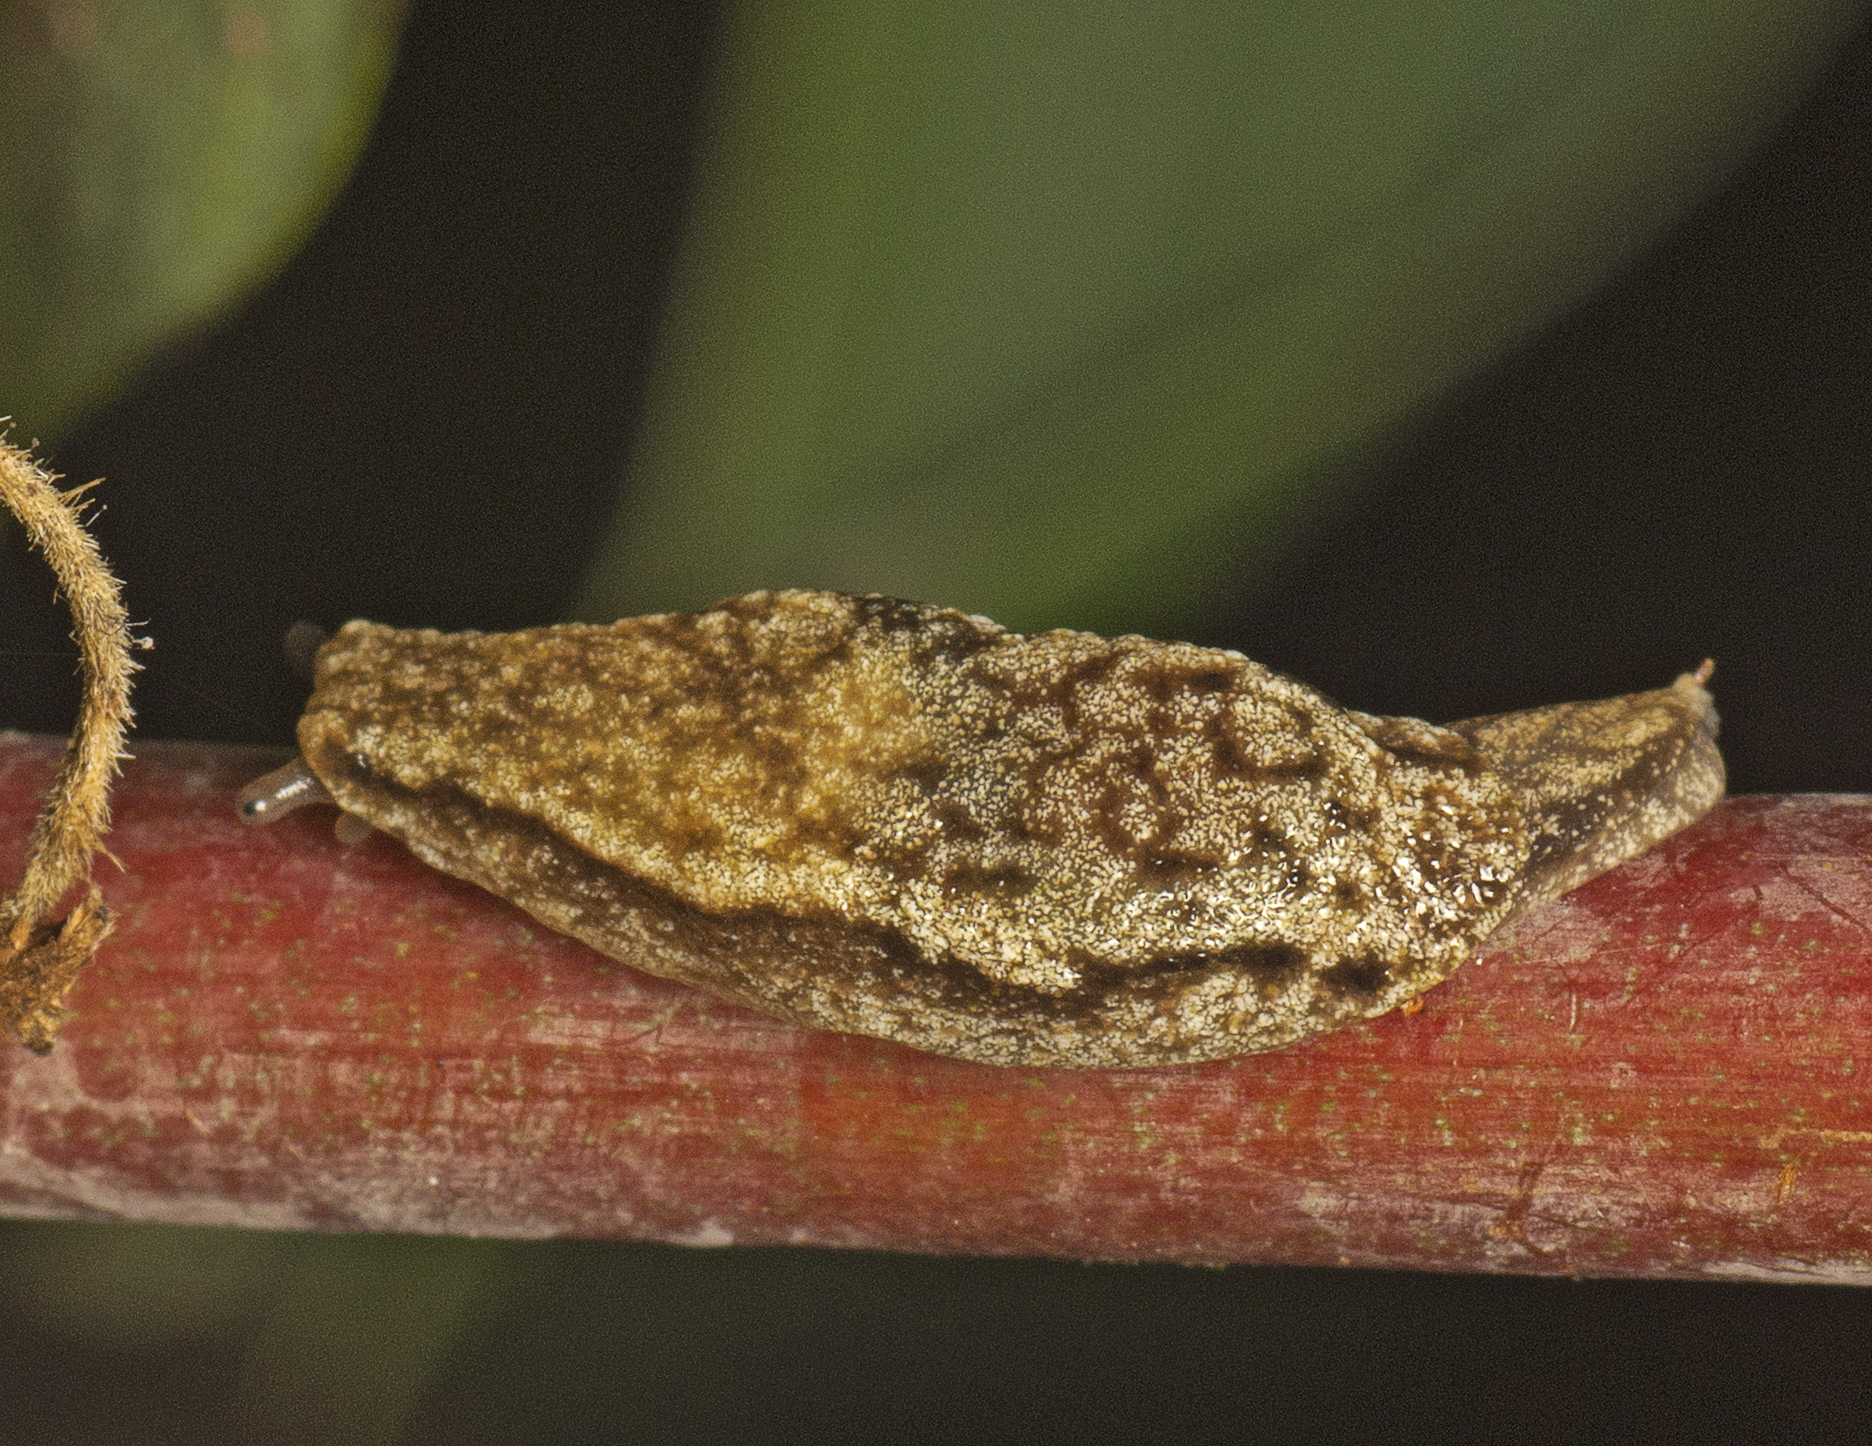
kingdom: Animalia
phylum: Mollusca
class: Gastropoda
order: Stylommatophora
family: Cystopeltidae
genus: Cystopelta
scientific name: Cystopelta astra
